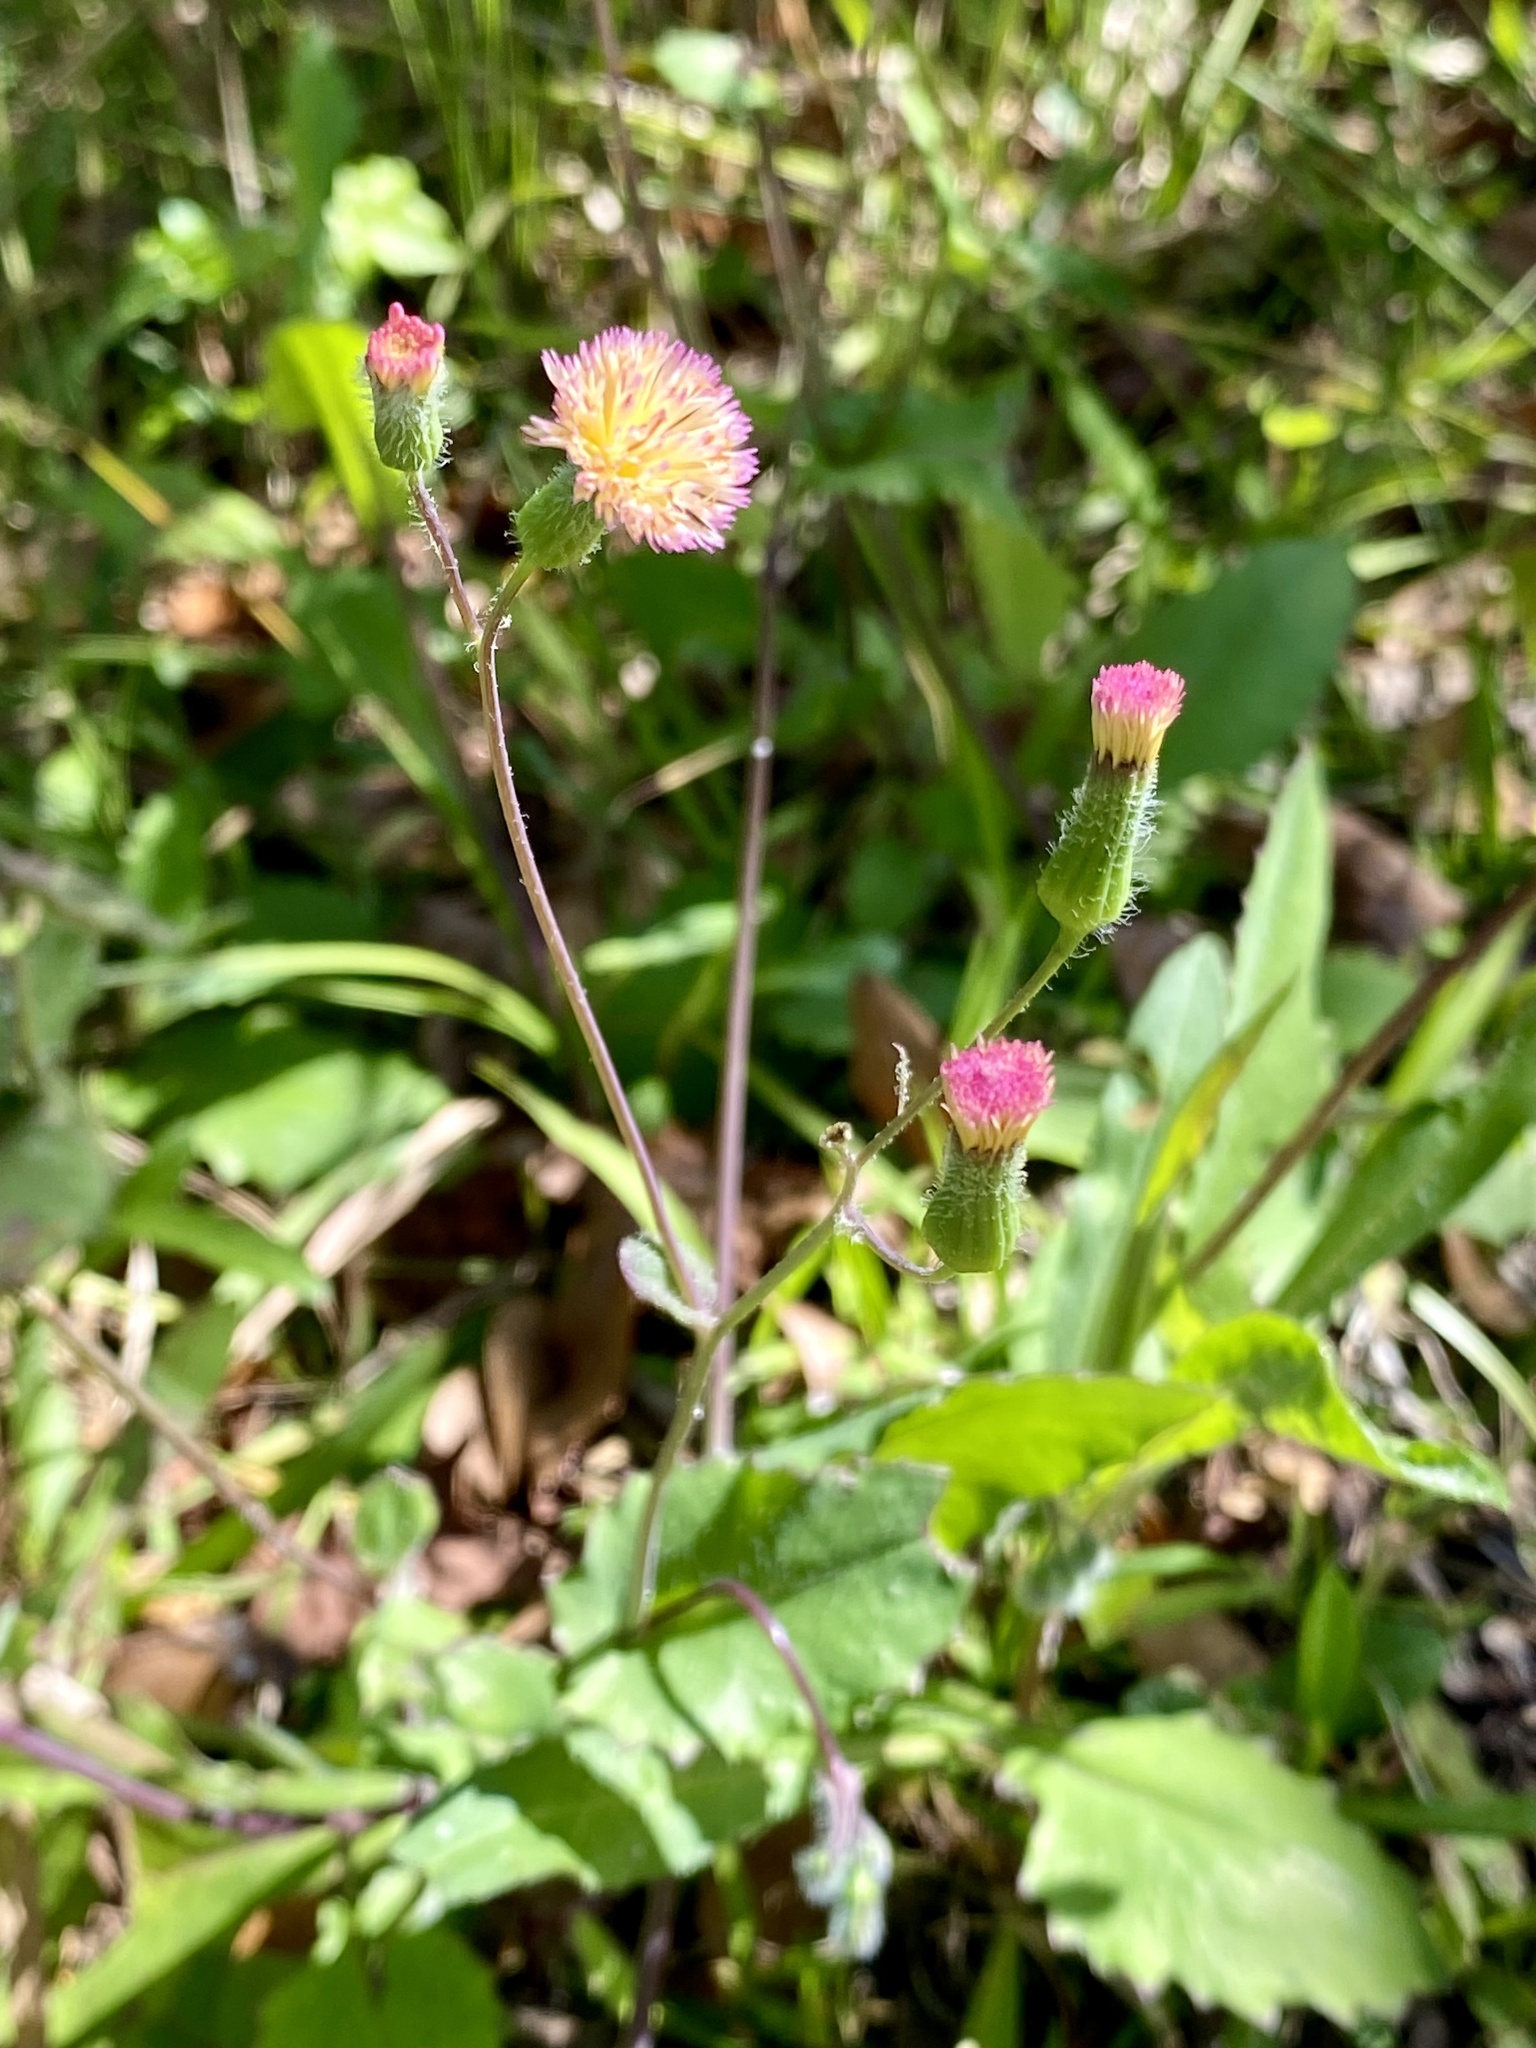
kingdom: Plantae
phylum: Tracheophyta
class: Magnoliopsida
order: Asterales
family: Asteraceae
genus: Emilia
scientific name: Emilia praetermissa
